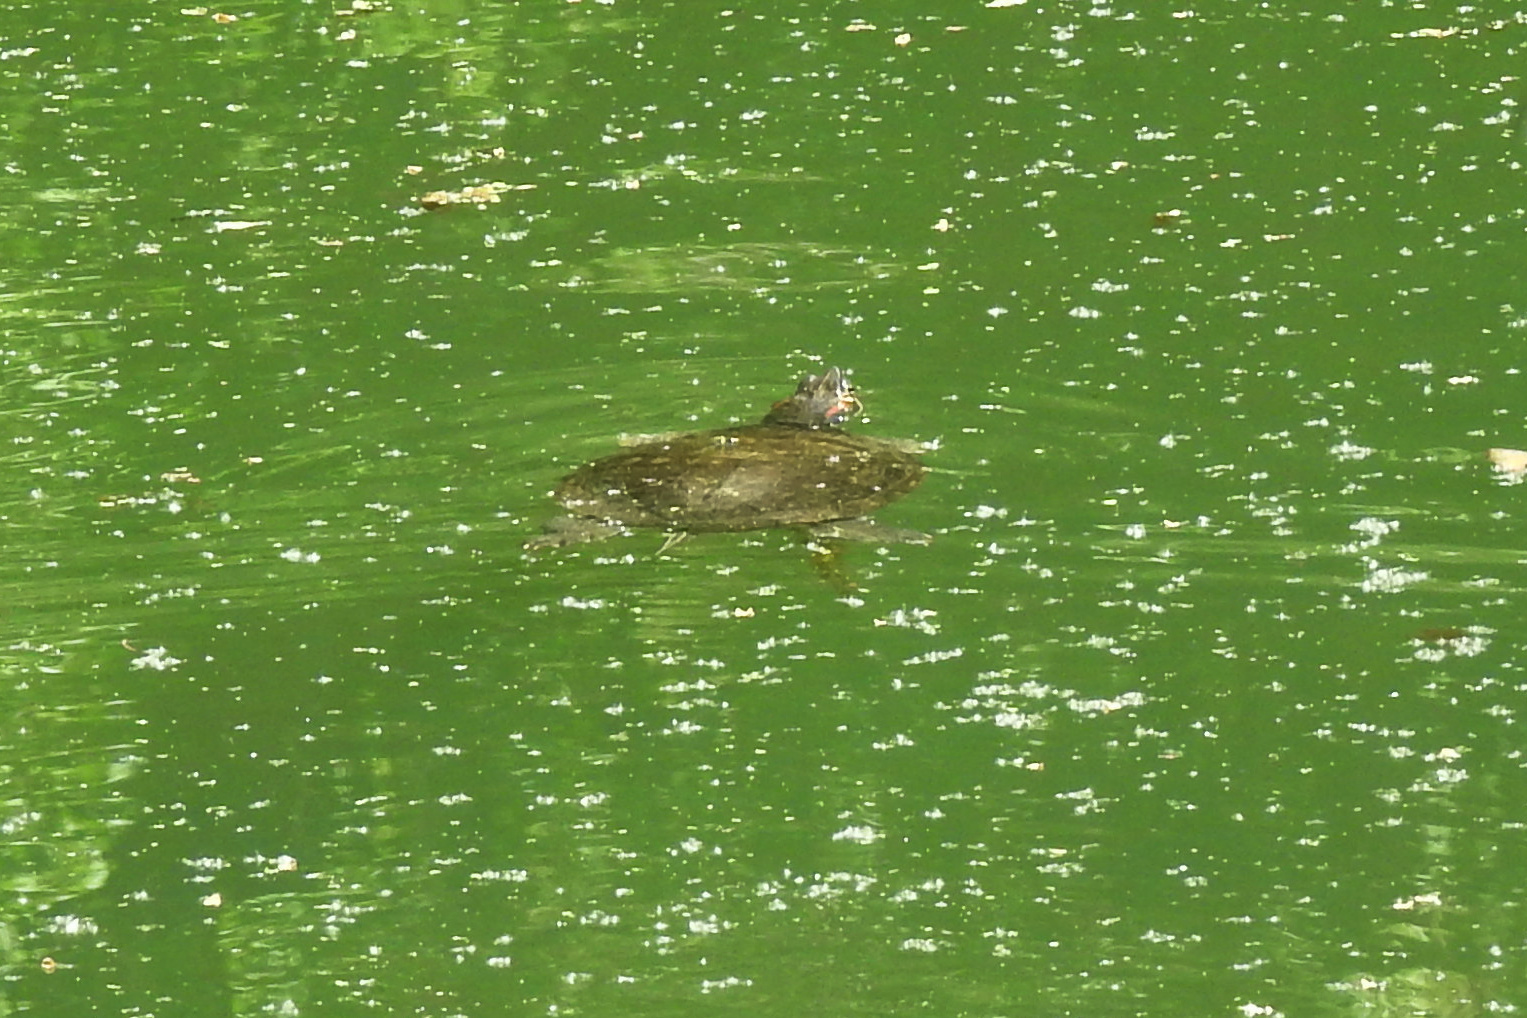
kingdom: Animalia
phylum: Chordata
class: Testudines
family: Emydidae
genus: Trachemys
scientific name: Trachemys scripta
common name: Slider
